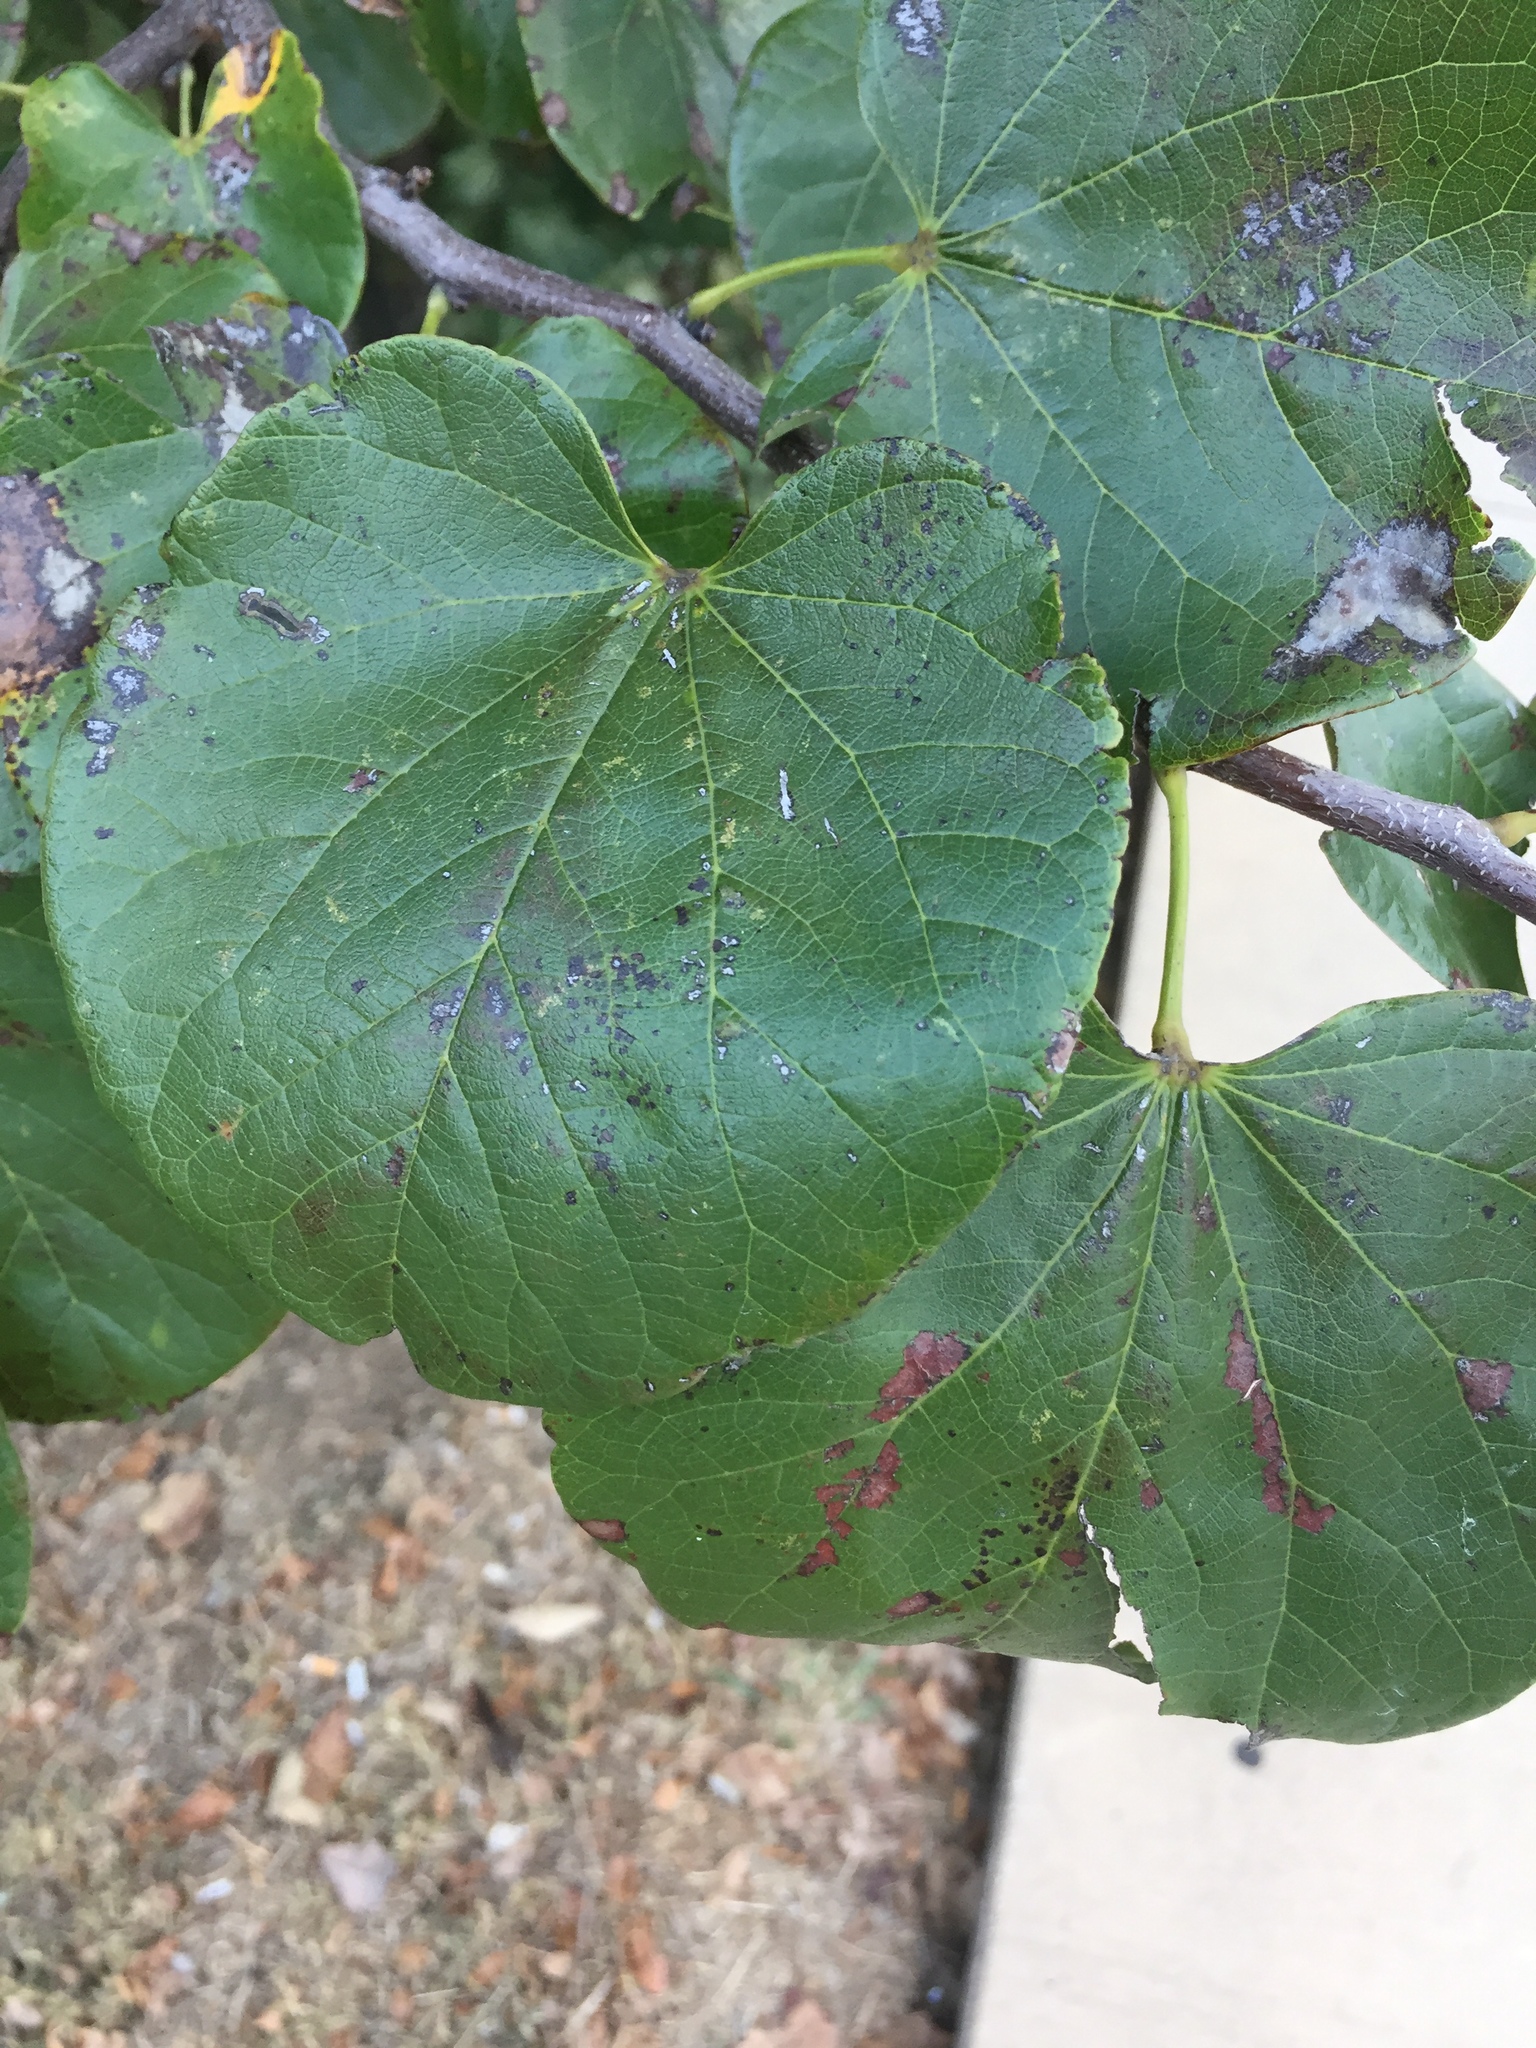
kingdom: Plantae
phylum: Tracheophyta
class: Magnoliopsida
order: Fabales
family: Fabaceae
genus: Cercis
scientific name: Cercis canadensis
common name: Eastern redbud
